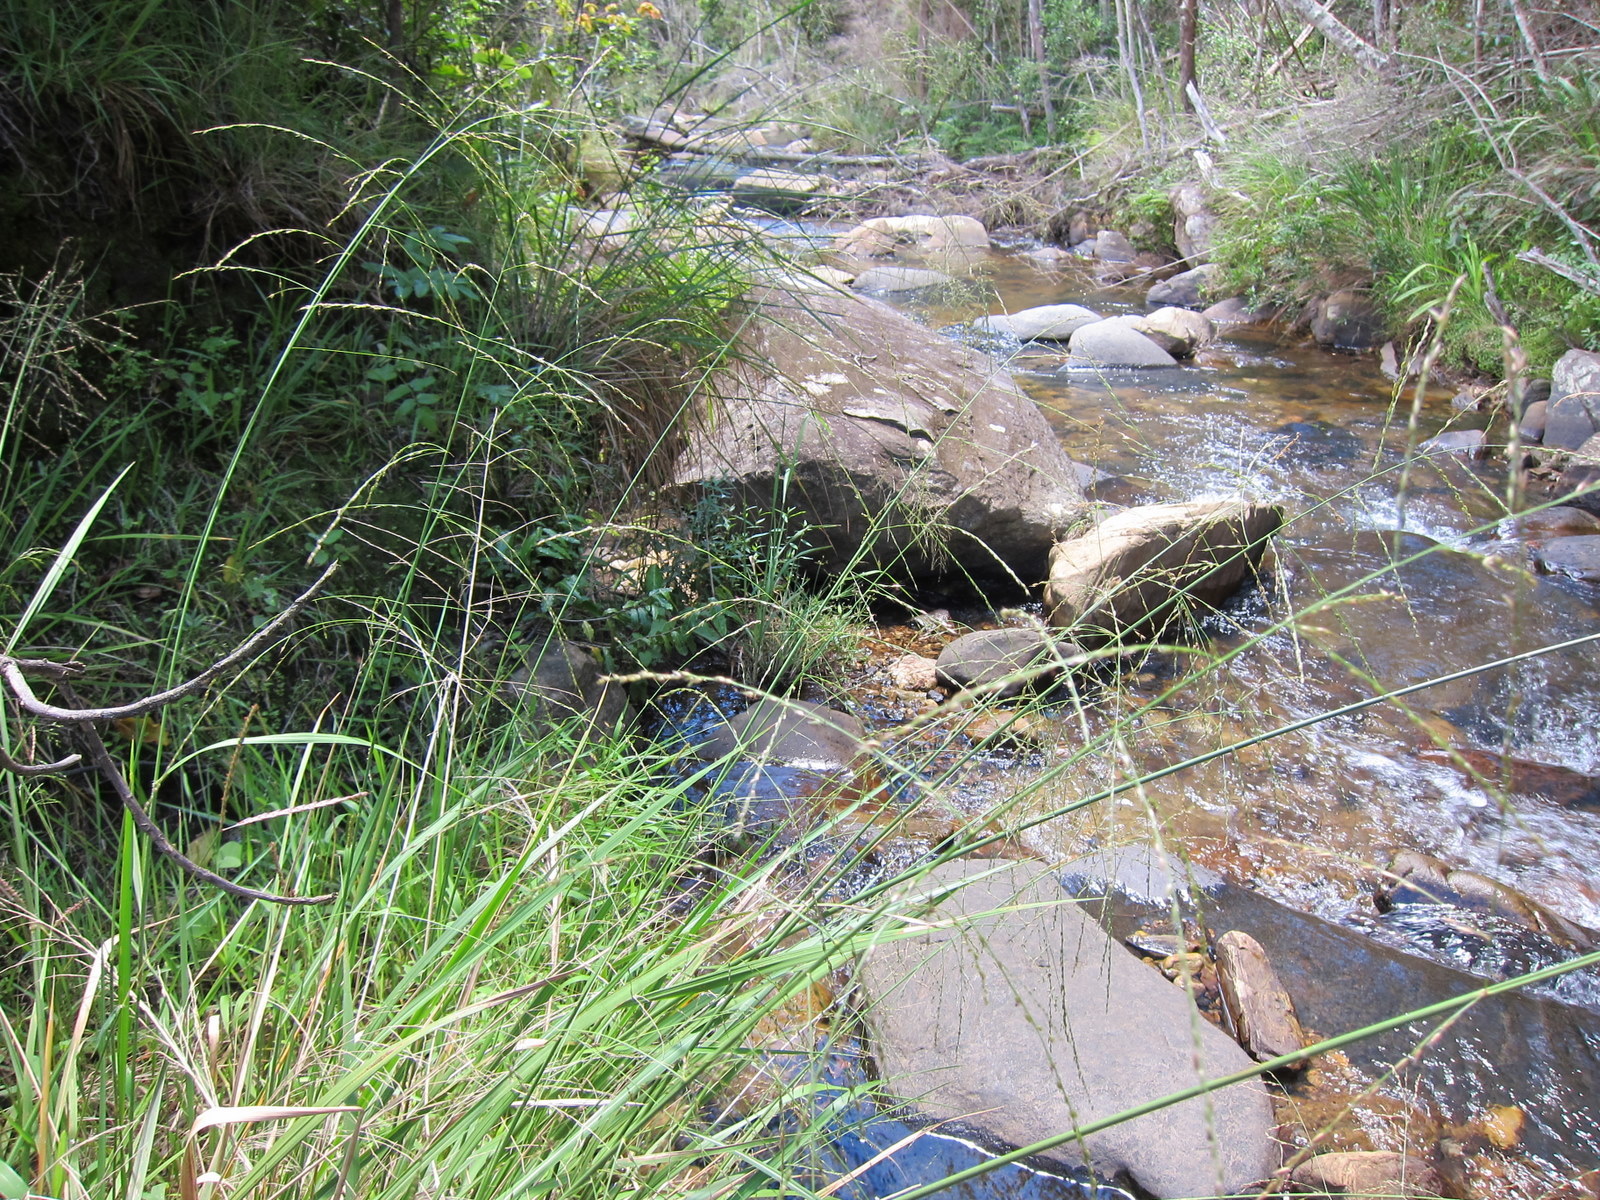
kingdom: Plantae
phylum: Tracheophyta
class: Liliopsida
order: Poales
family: Poaceae
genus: Arundinella
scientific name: Arundinella nepalensis
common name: Reed grass
